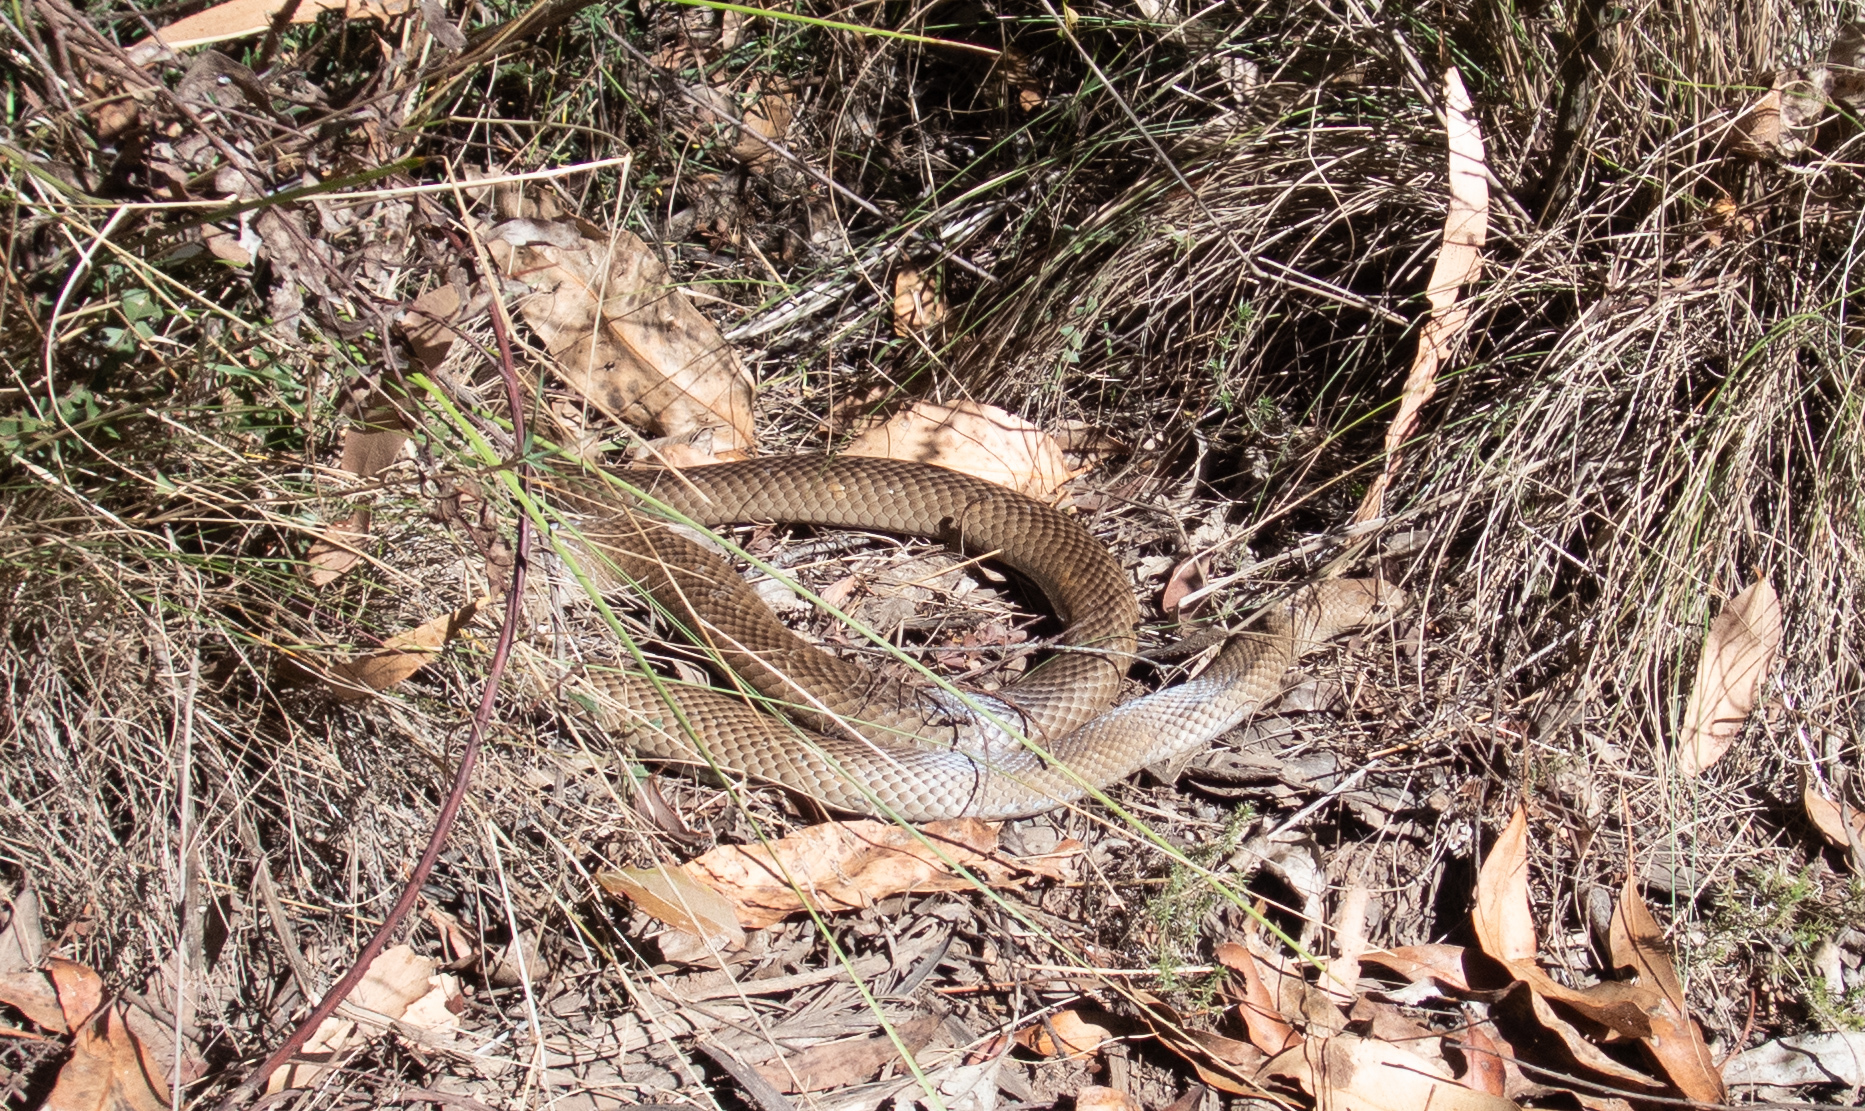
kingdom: Animalia
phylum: Chordata
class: Squamata
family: Elapidae
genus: Pseudonaja
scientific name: Pseudonaja textilis
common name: Eastern brown snake
